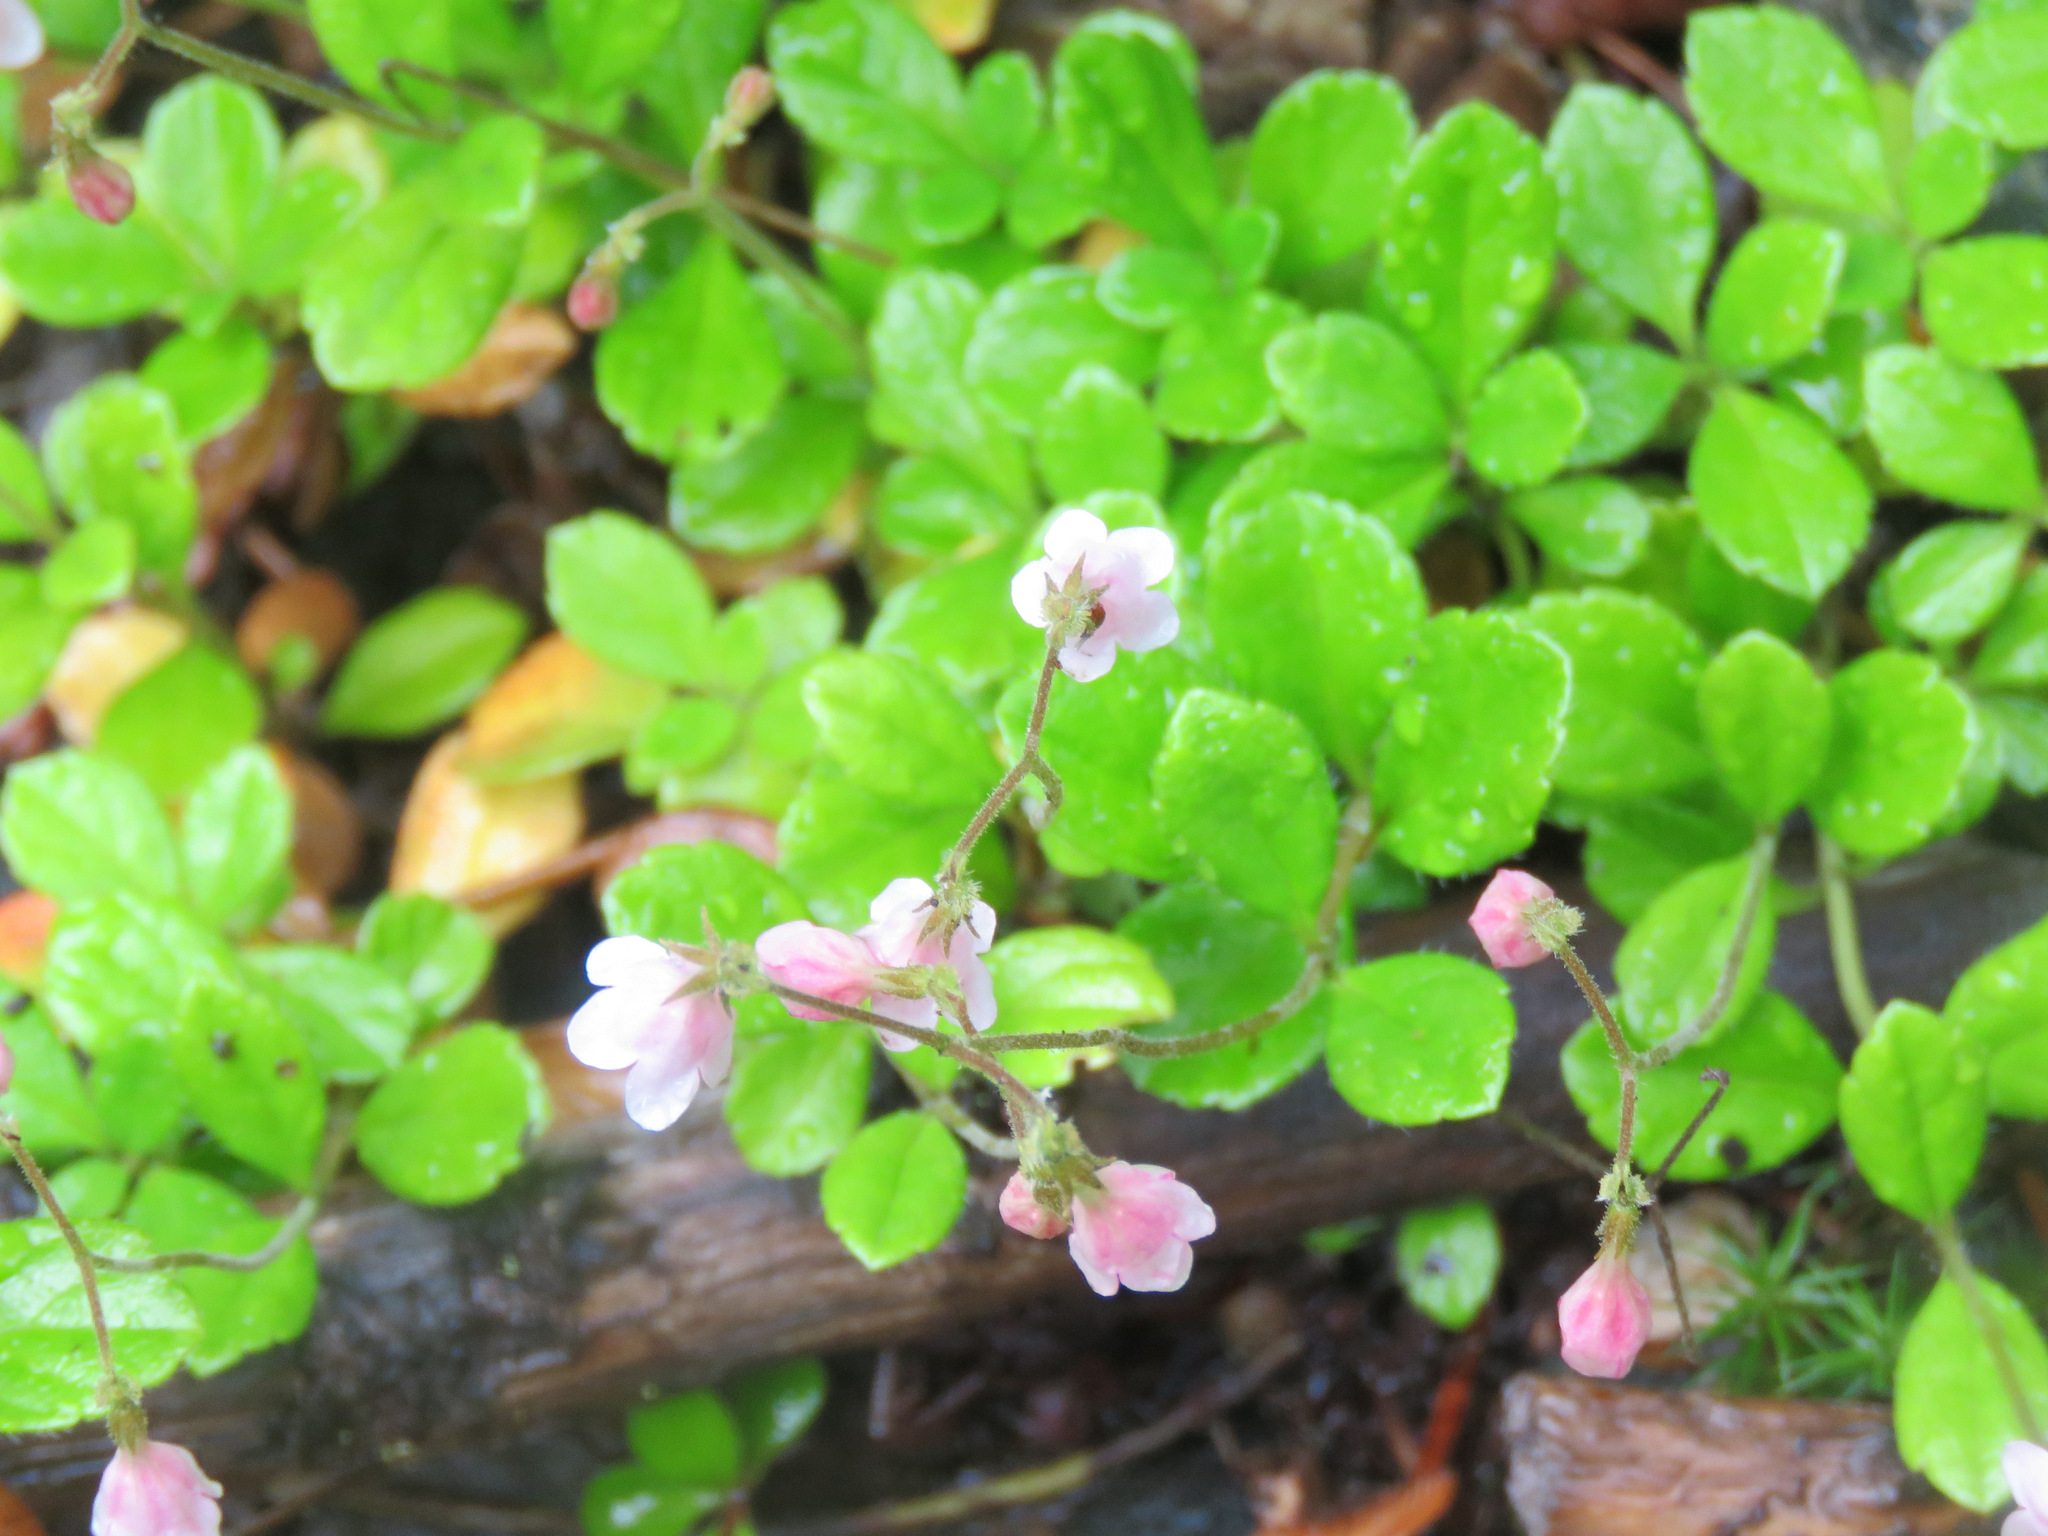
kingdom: Plantae
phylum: Tracheophyta
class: Magnoliopsida
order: Dipsacales
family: Caprifoliaceae
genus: Linnaea
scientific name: Linnaea borealis
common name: Twinflower
